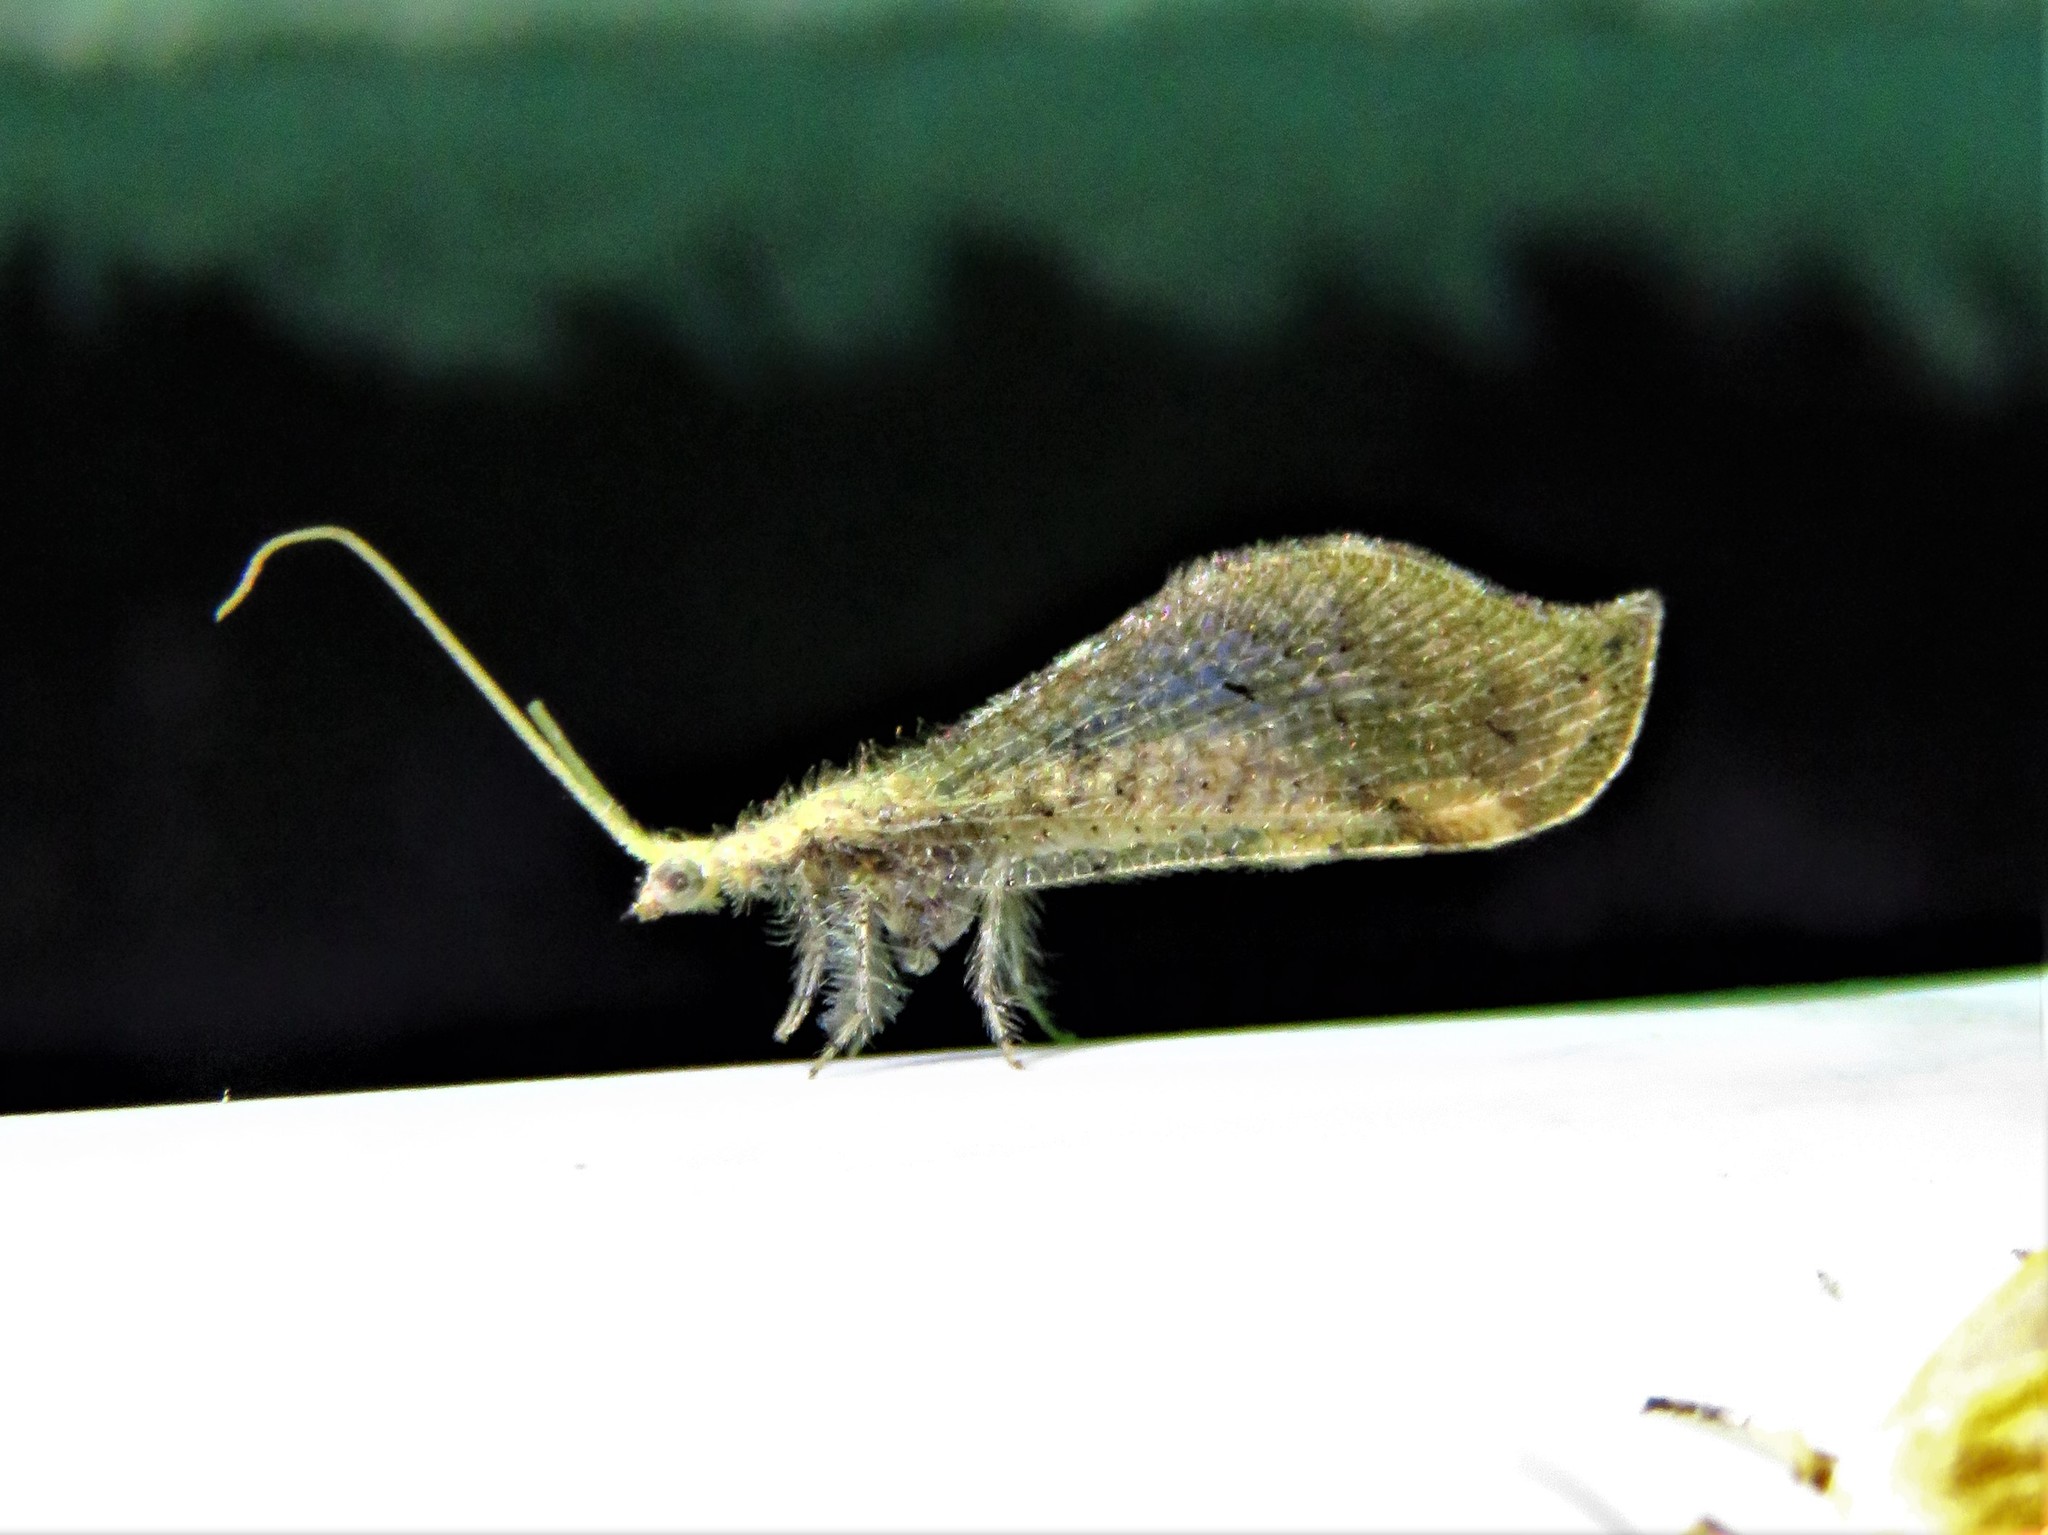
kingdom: Animalia
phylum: Arthropoda
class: Insecta
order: Neuroptera
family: Berothidae
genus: Lomamyia
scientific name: Lomamyia squamosa
